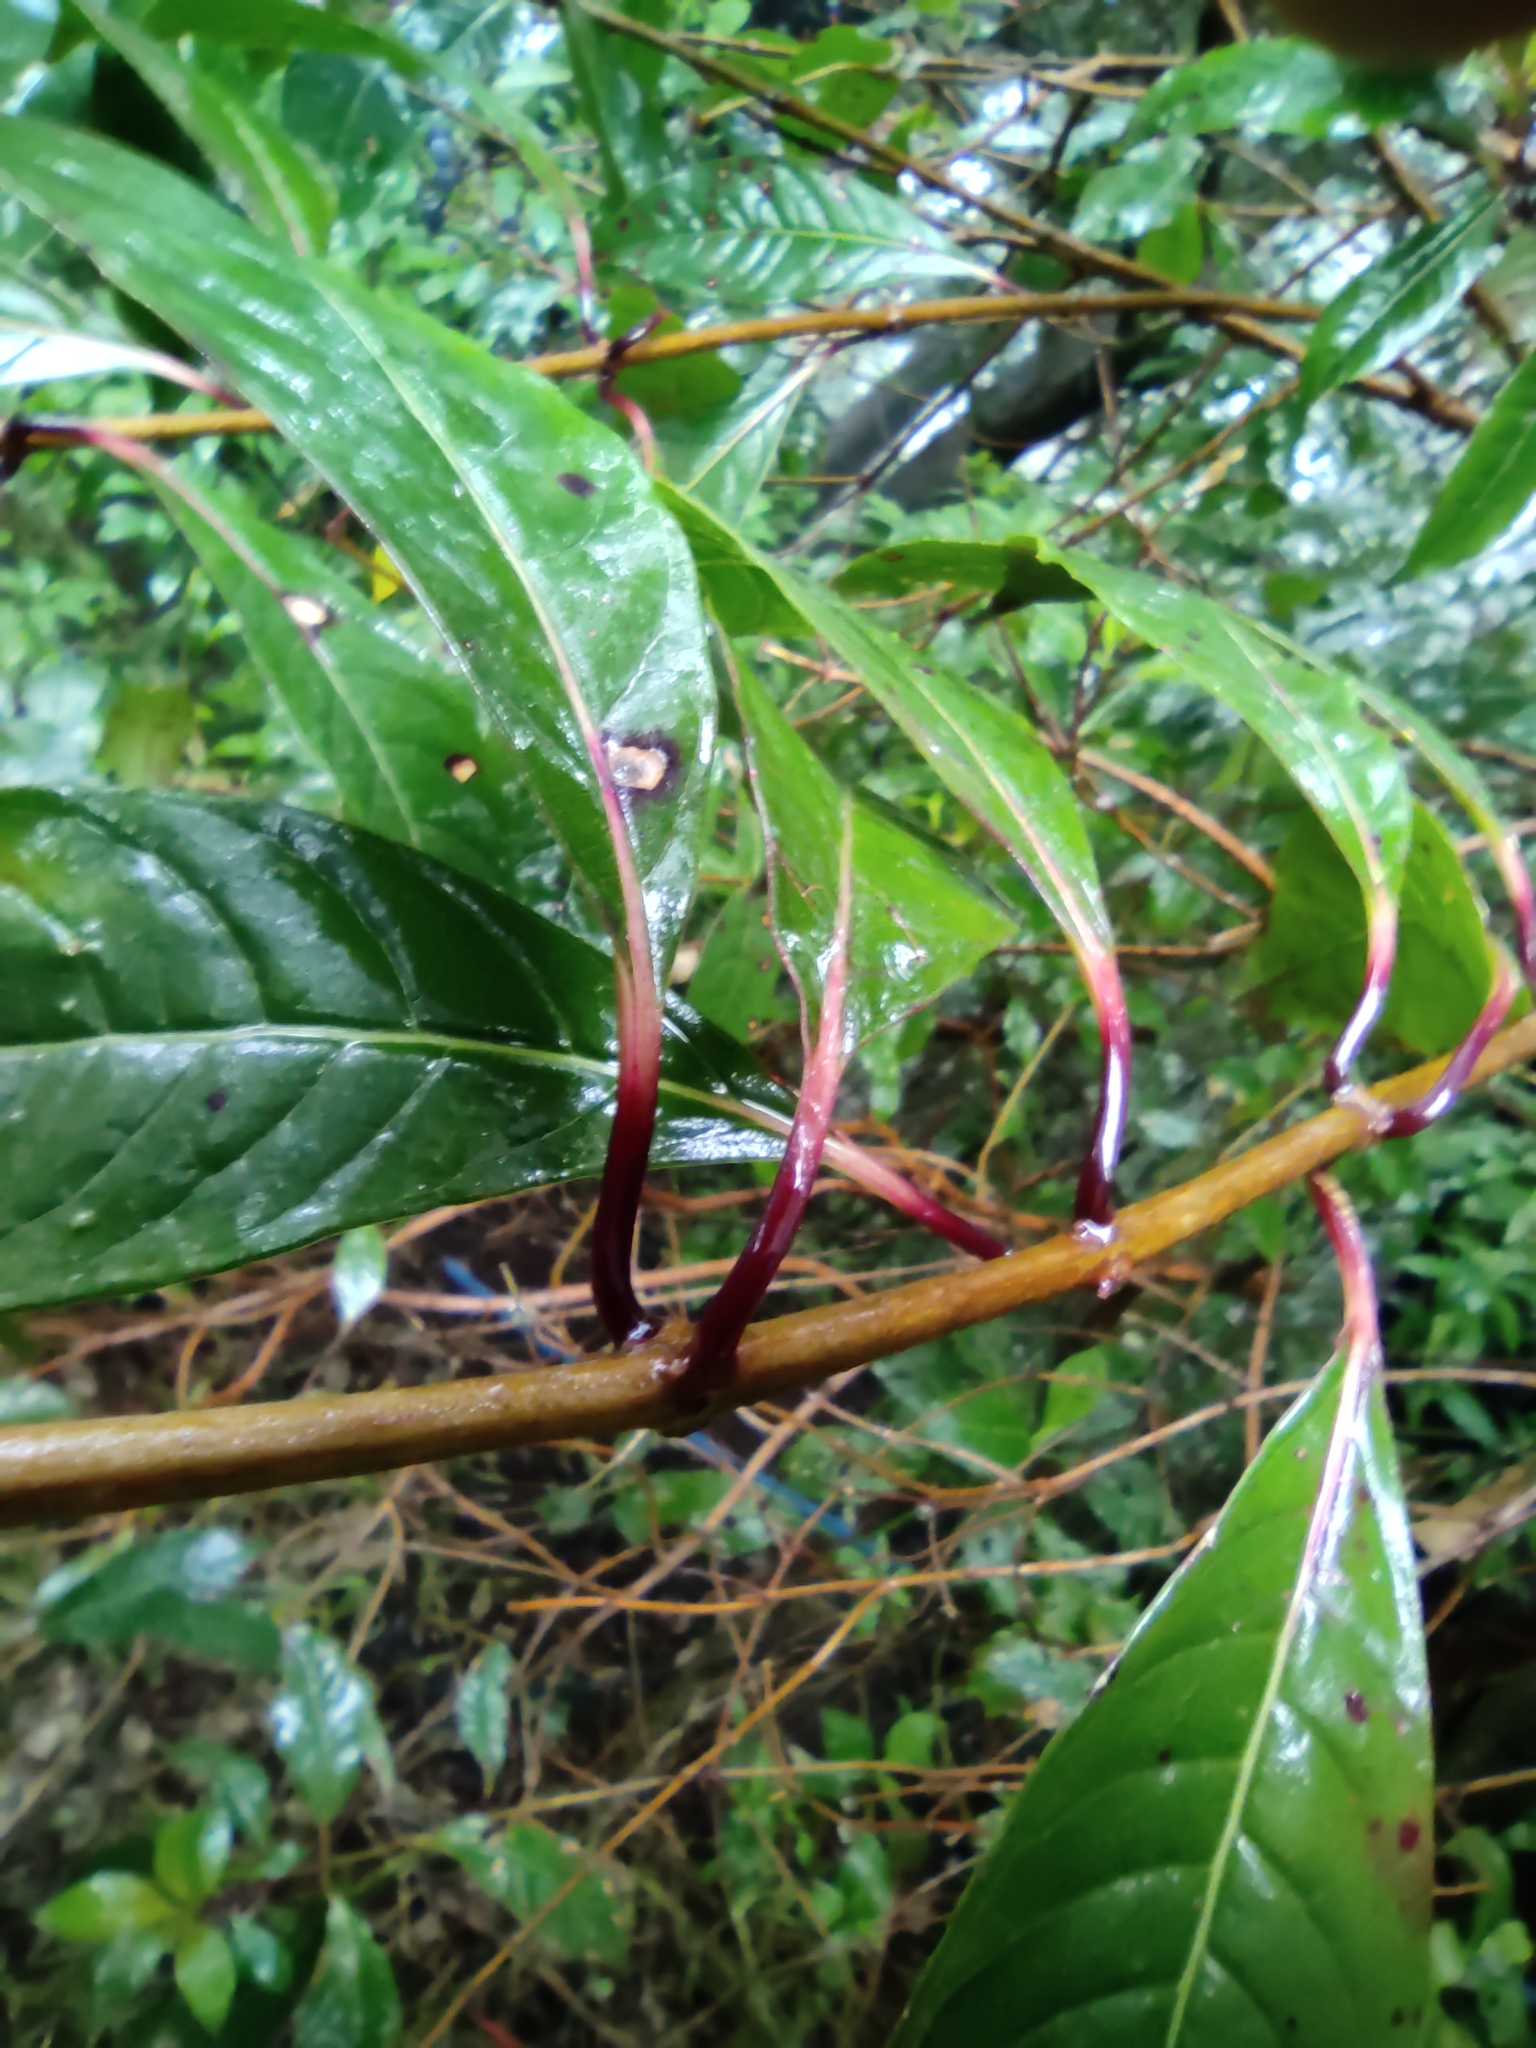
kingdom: Plantae
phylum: Tracheophyta
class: Magnoliopsida
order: Myrtales
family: Onagraceae
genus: Fuchsia
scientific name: Fuchsia paniculata
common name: Shrubby fuchsia
